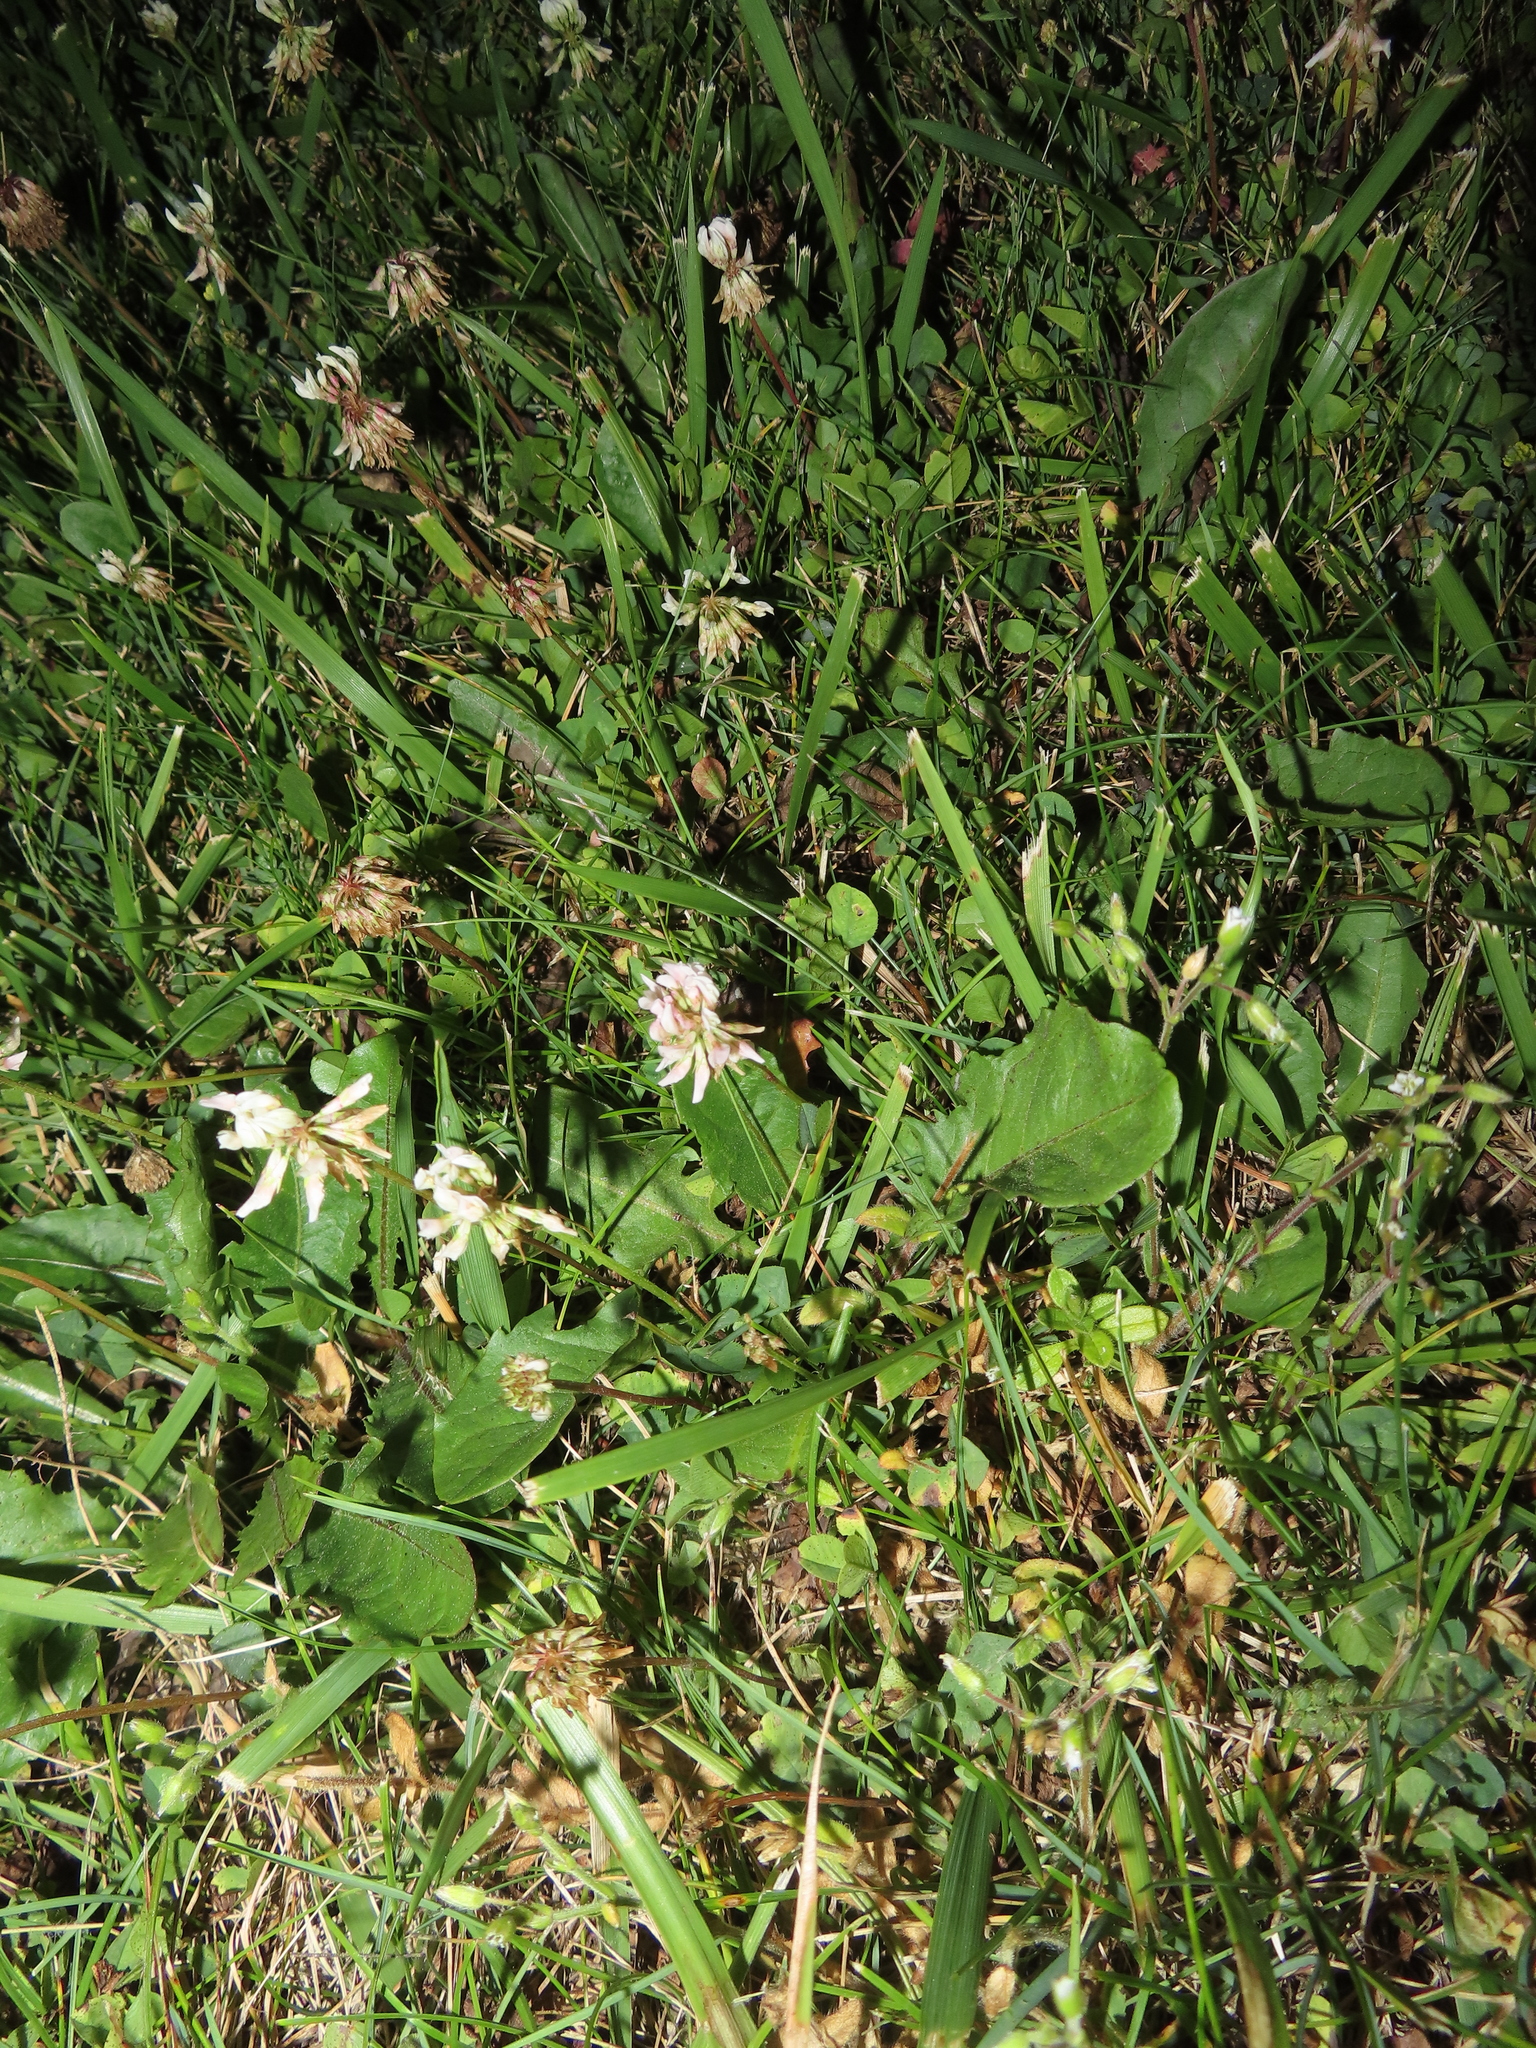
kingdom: Plantae
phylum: Tracheophyta
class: Magnoliopsida
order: Fabales
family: Fabaceae
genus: Trifolium
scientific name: Trifolium repens
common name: White clover
